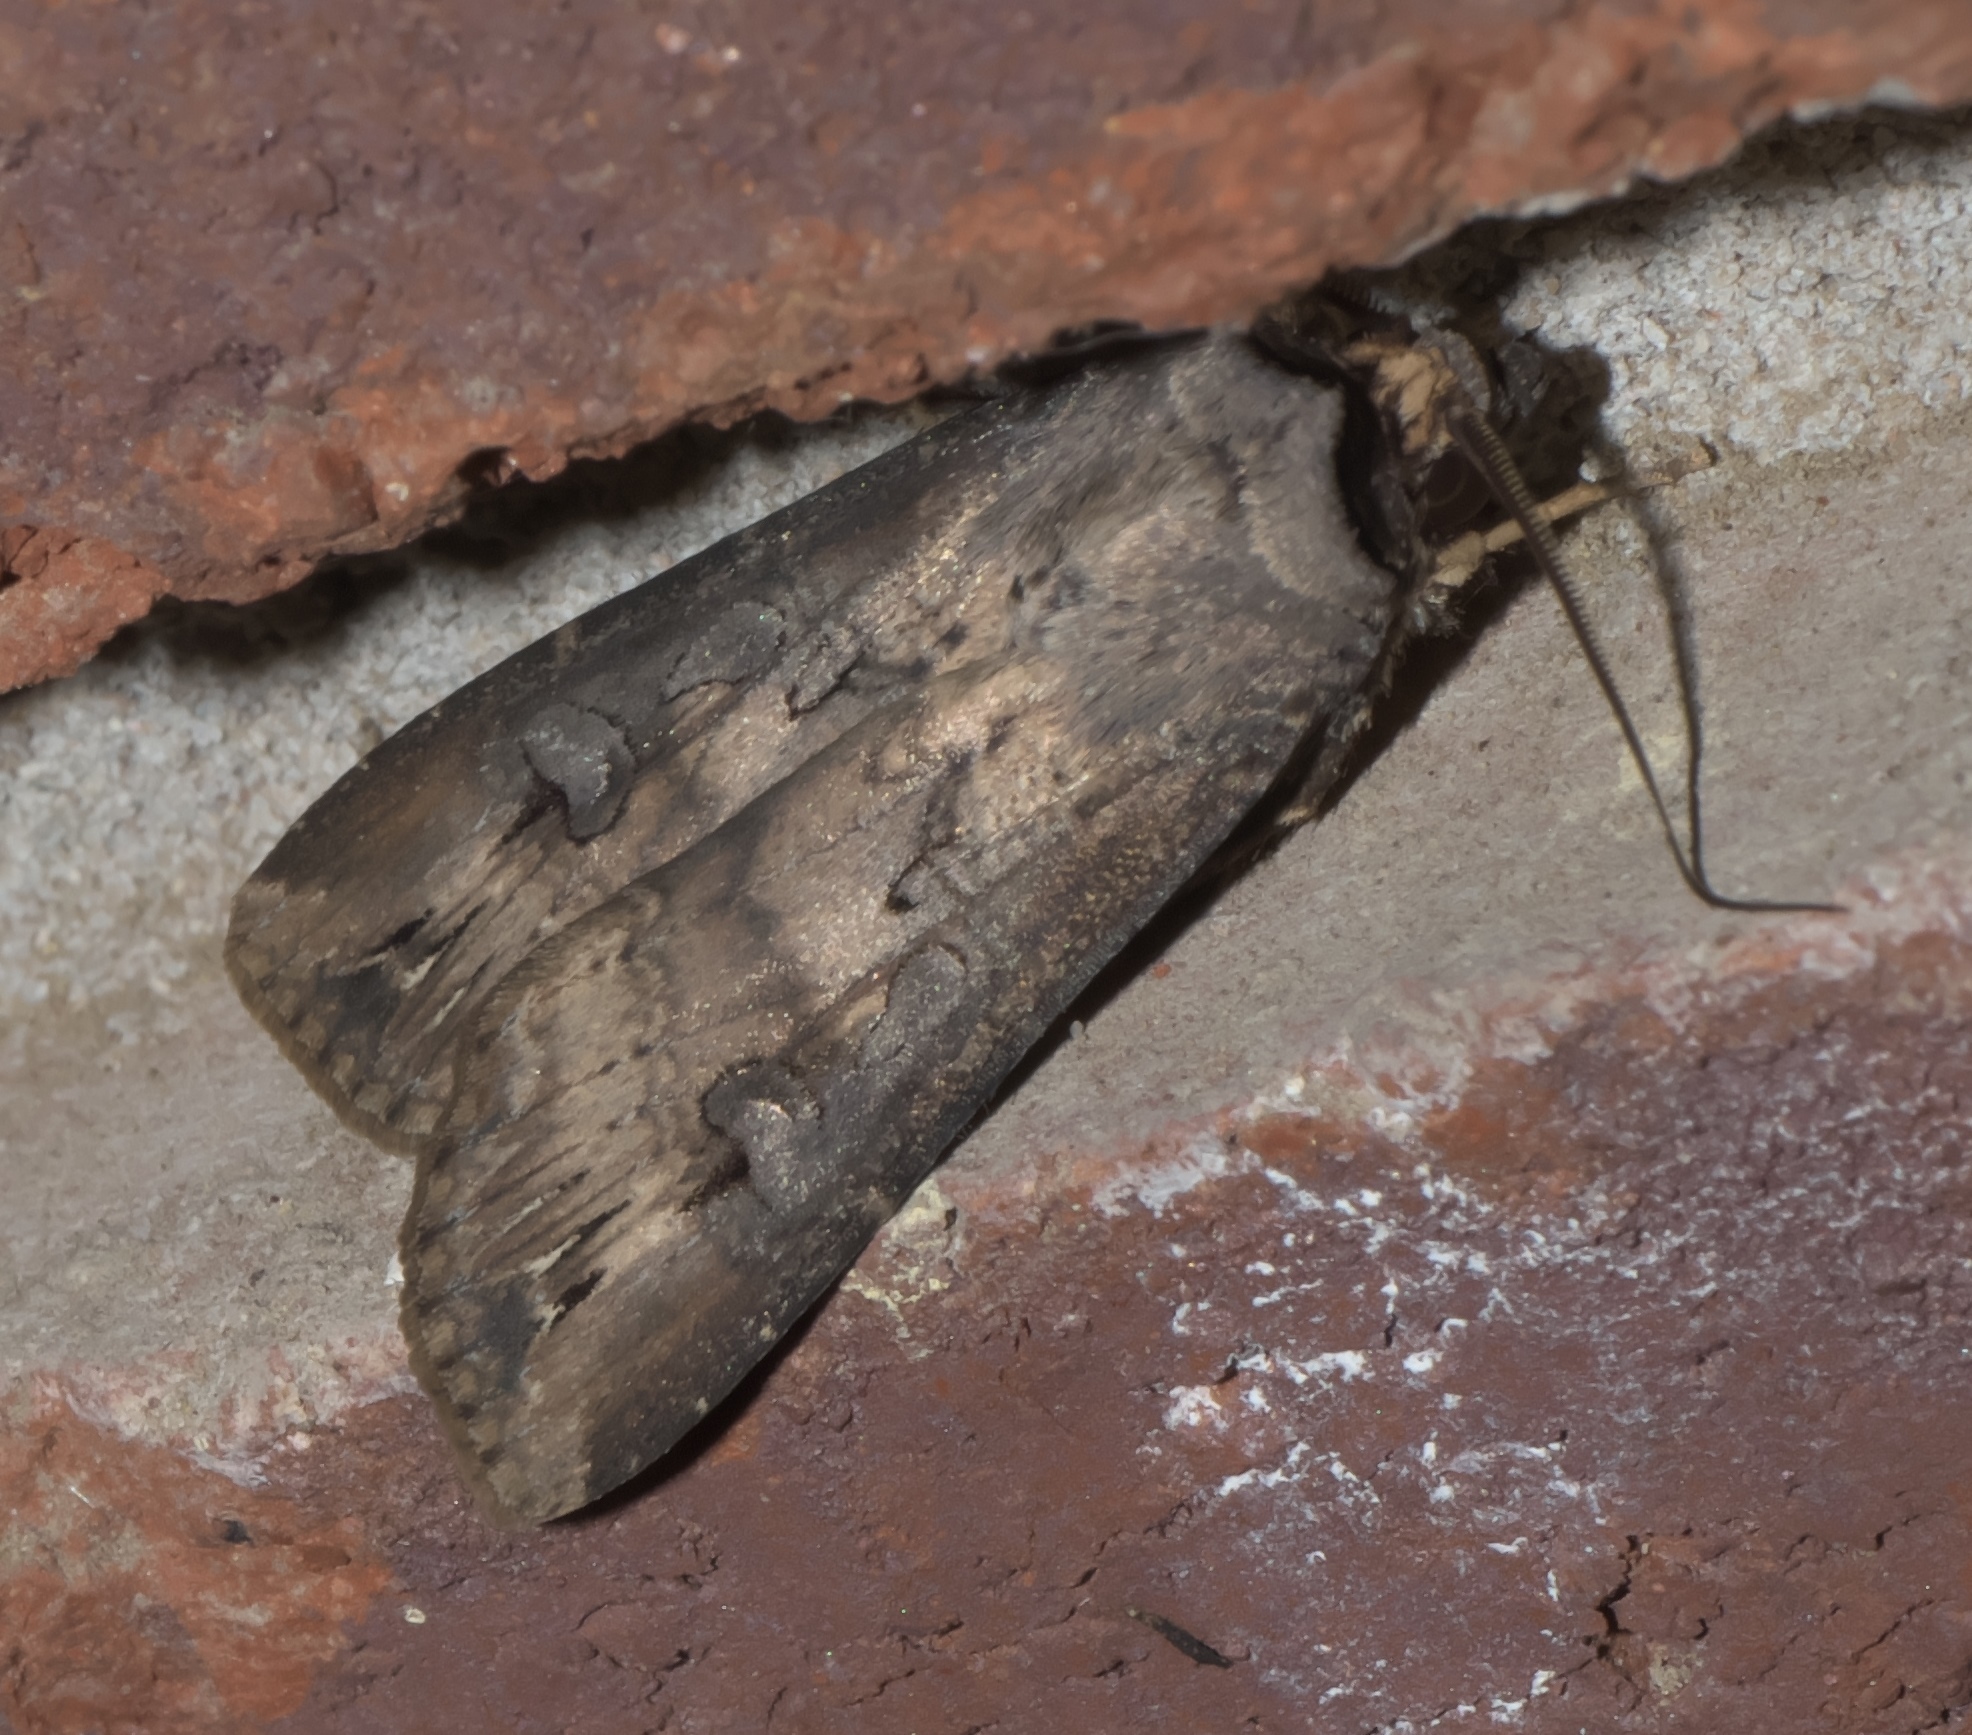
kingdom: Animalia
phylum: Arthropoda
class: Insecta
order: Lepidoptera
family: Noctuidae
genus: Agrotis
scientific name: Agrotis ipsilon
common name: Dark sword-grass
